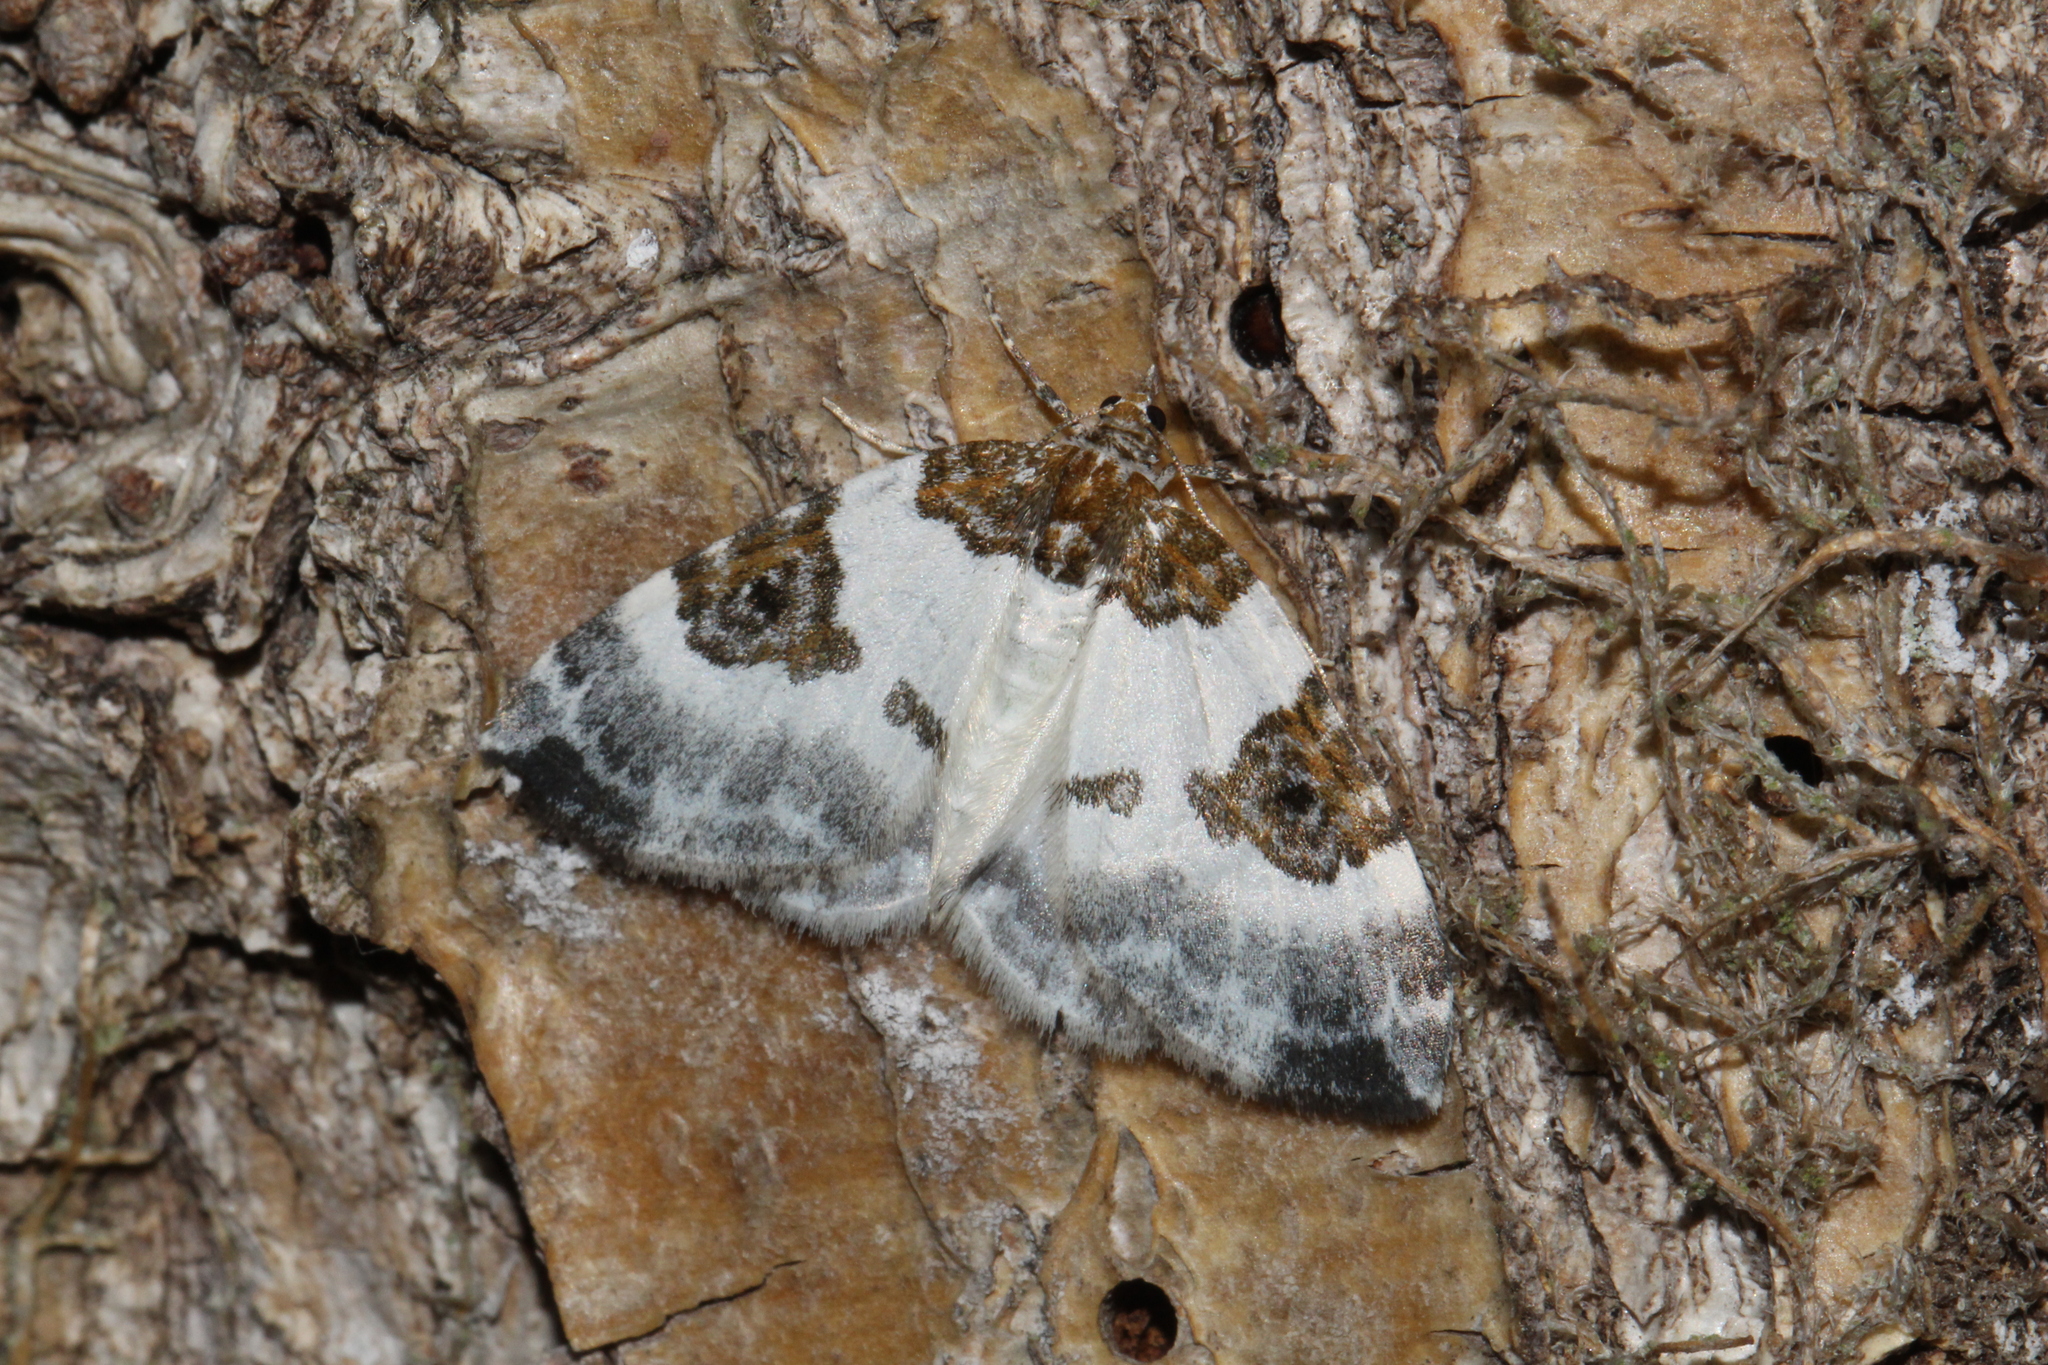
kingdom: Animalia
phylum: Arthropoda
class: Insecta
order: Lepidoptera
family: Geometridae
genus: Plemyria
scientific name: Plemyria rubiginata
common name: Blue-bordered carpet
